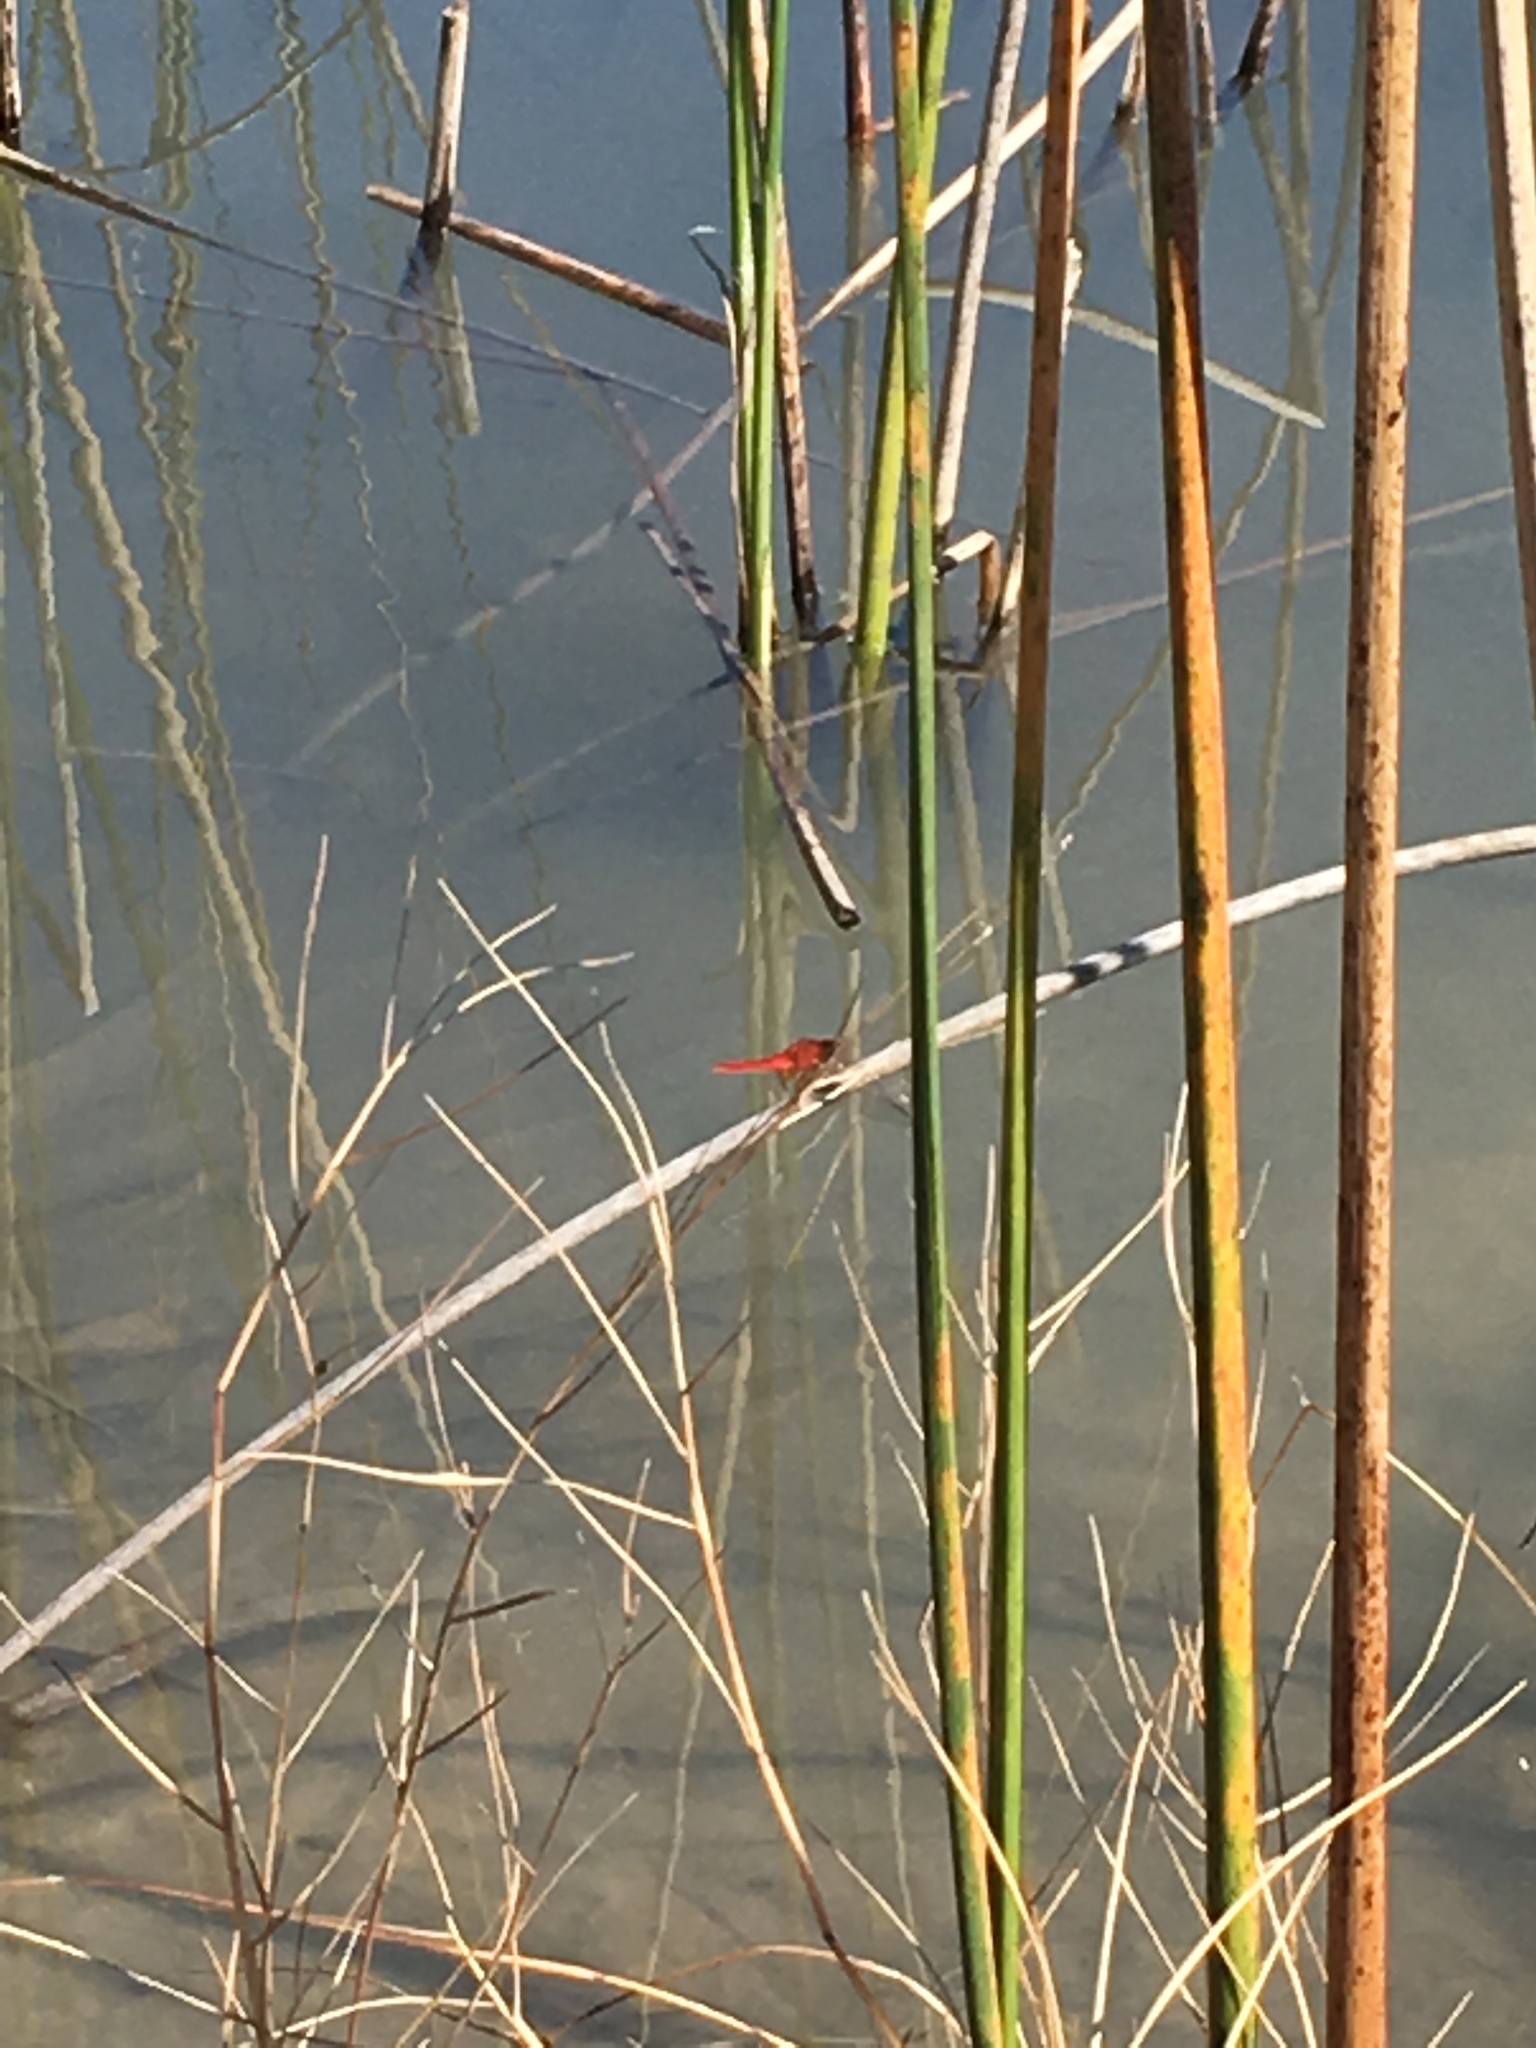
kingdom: Animalia
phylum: Arthropoda
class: Insecta
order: Odonata
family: Libellulidae
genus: Crocothemis
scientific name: Crocothemis servilia
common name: Scarlet skimmer
